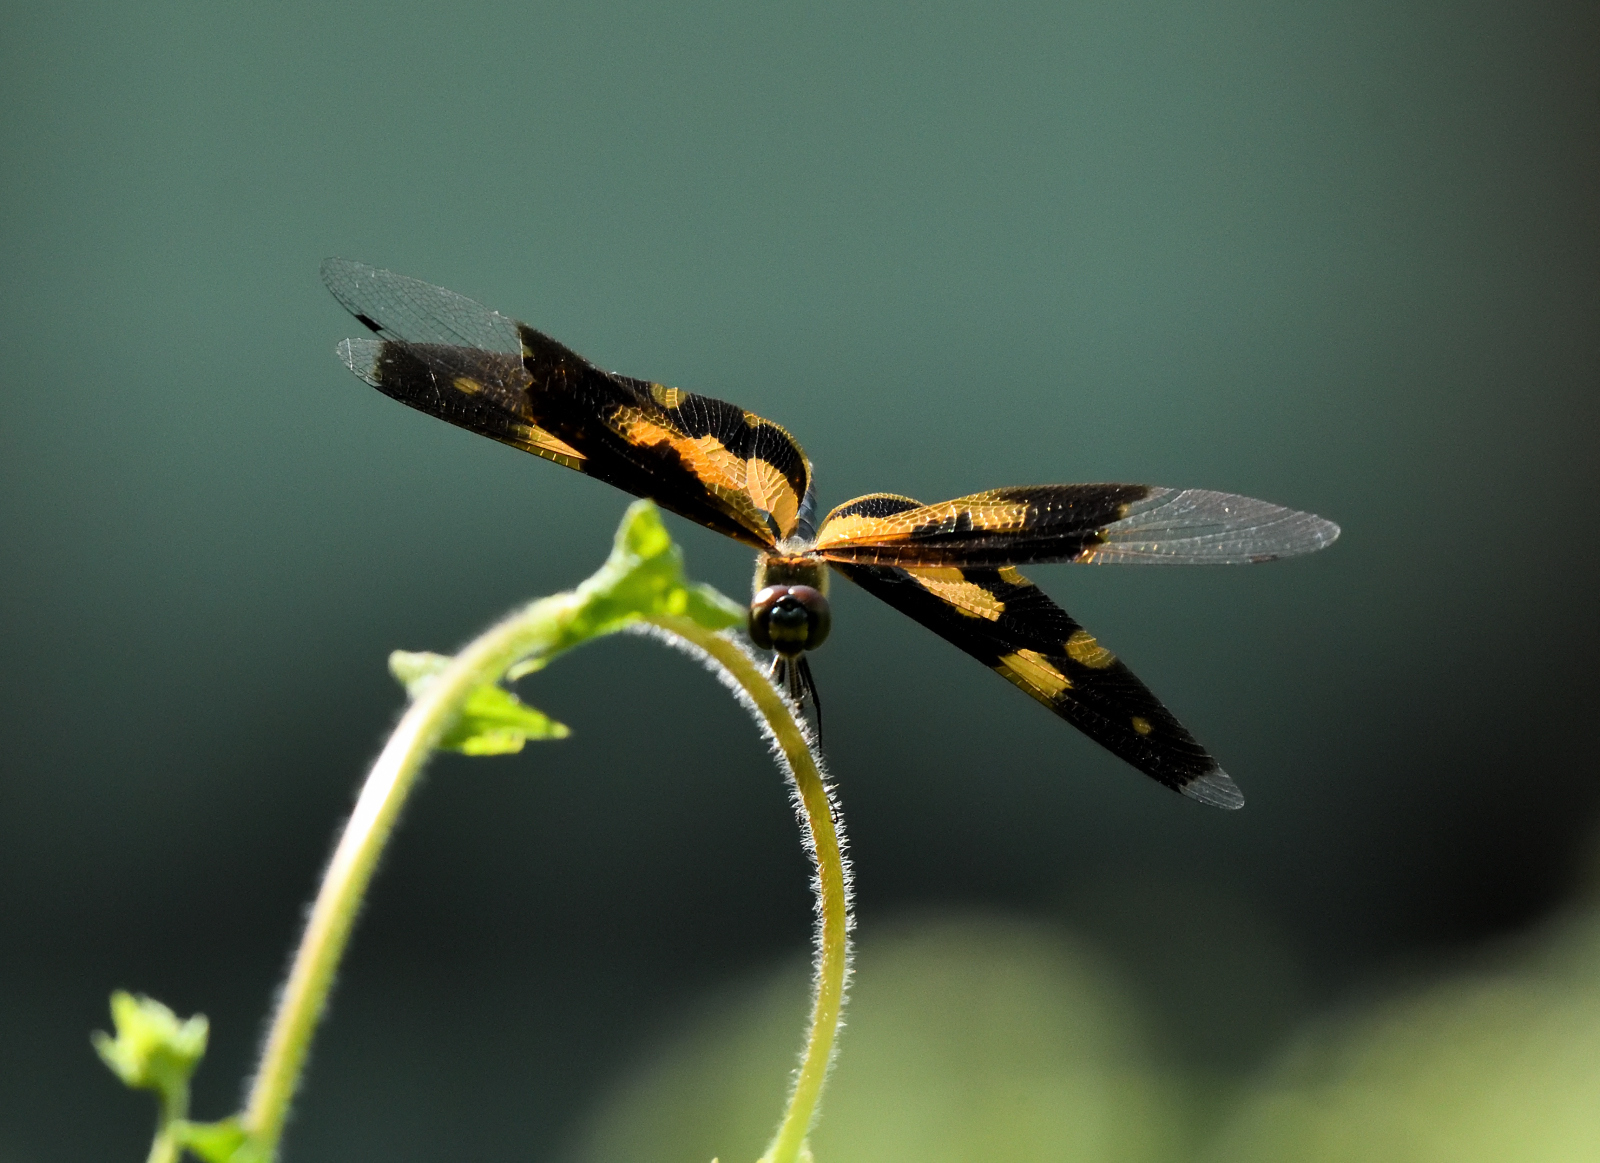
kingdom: Animalia
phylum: Arthropoda
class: Insecta
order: Odonata
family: Libellulidae
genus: Rhyothemis
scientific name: Rhyothemis variegata
